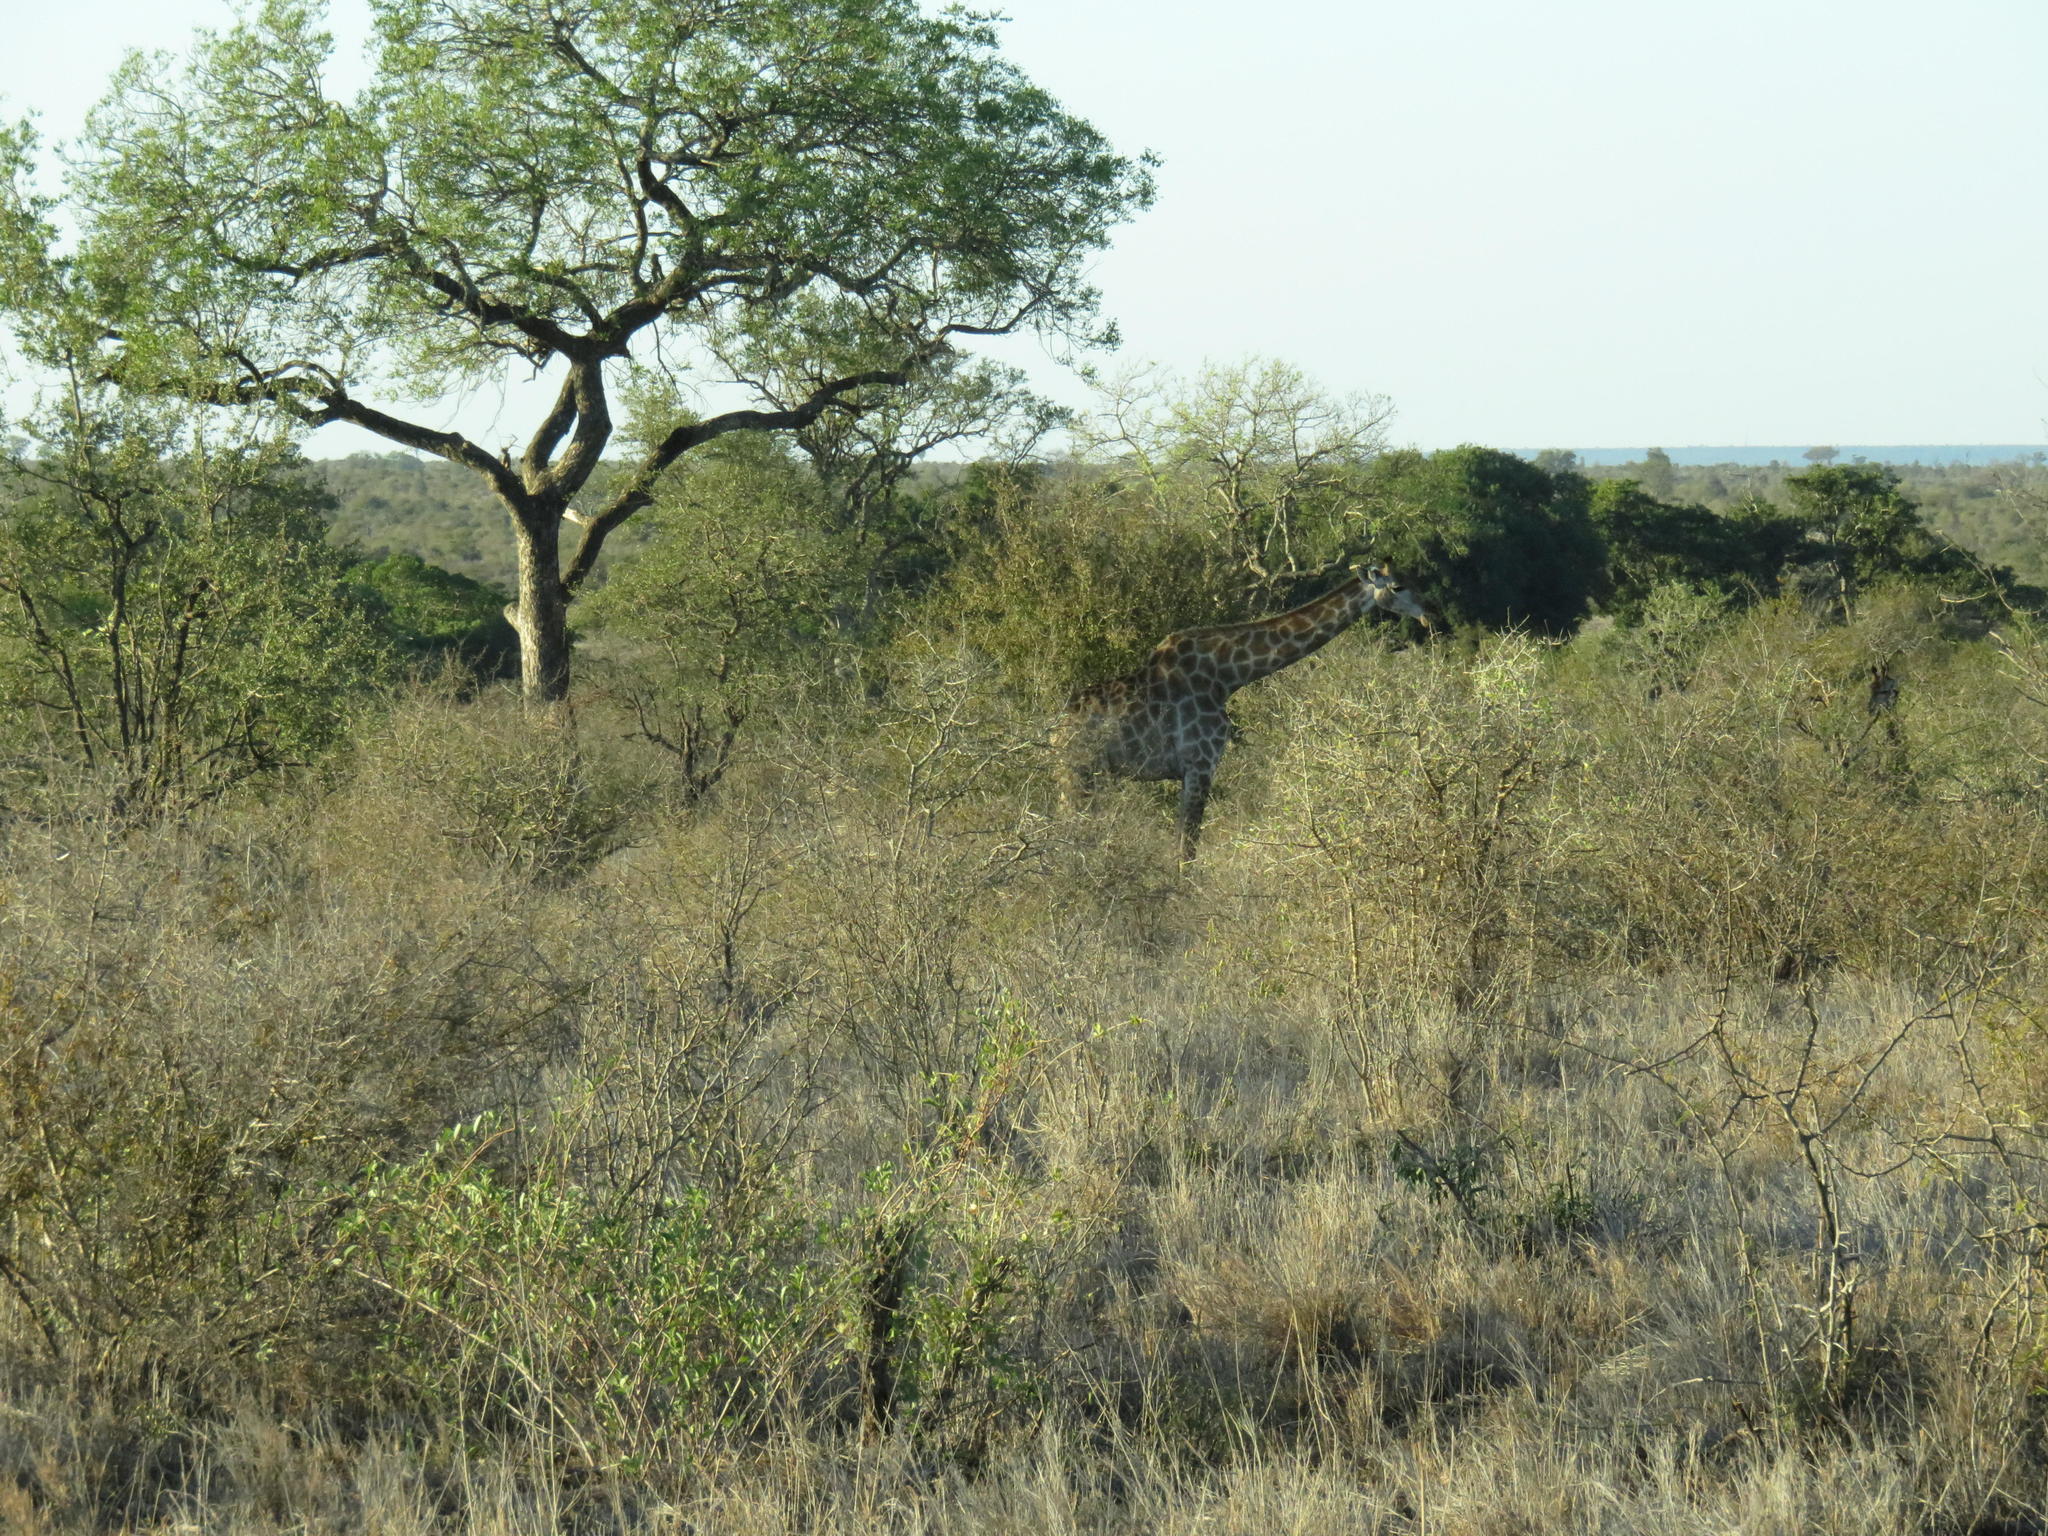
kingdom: Animalia
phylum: Chordata
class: Mammalia
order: Artiodactyla
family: Giraffidae
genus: Giraffa
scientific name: Giraffa giraffa
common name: Southern giraffe
